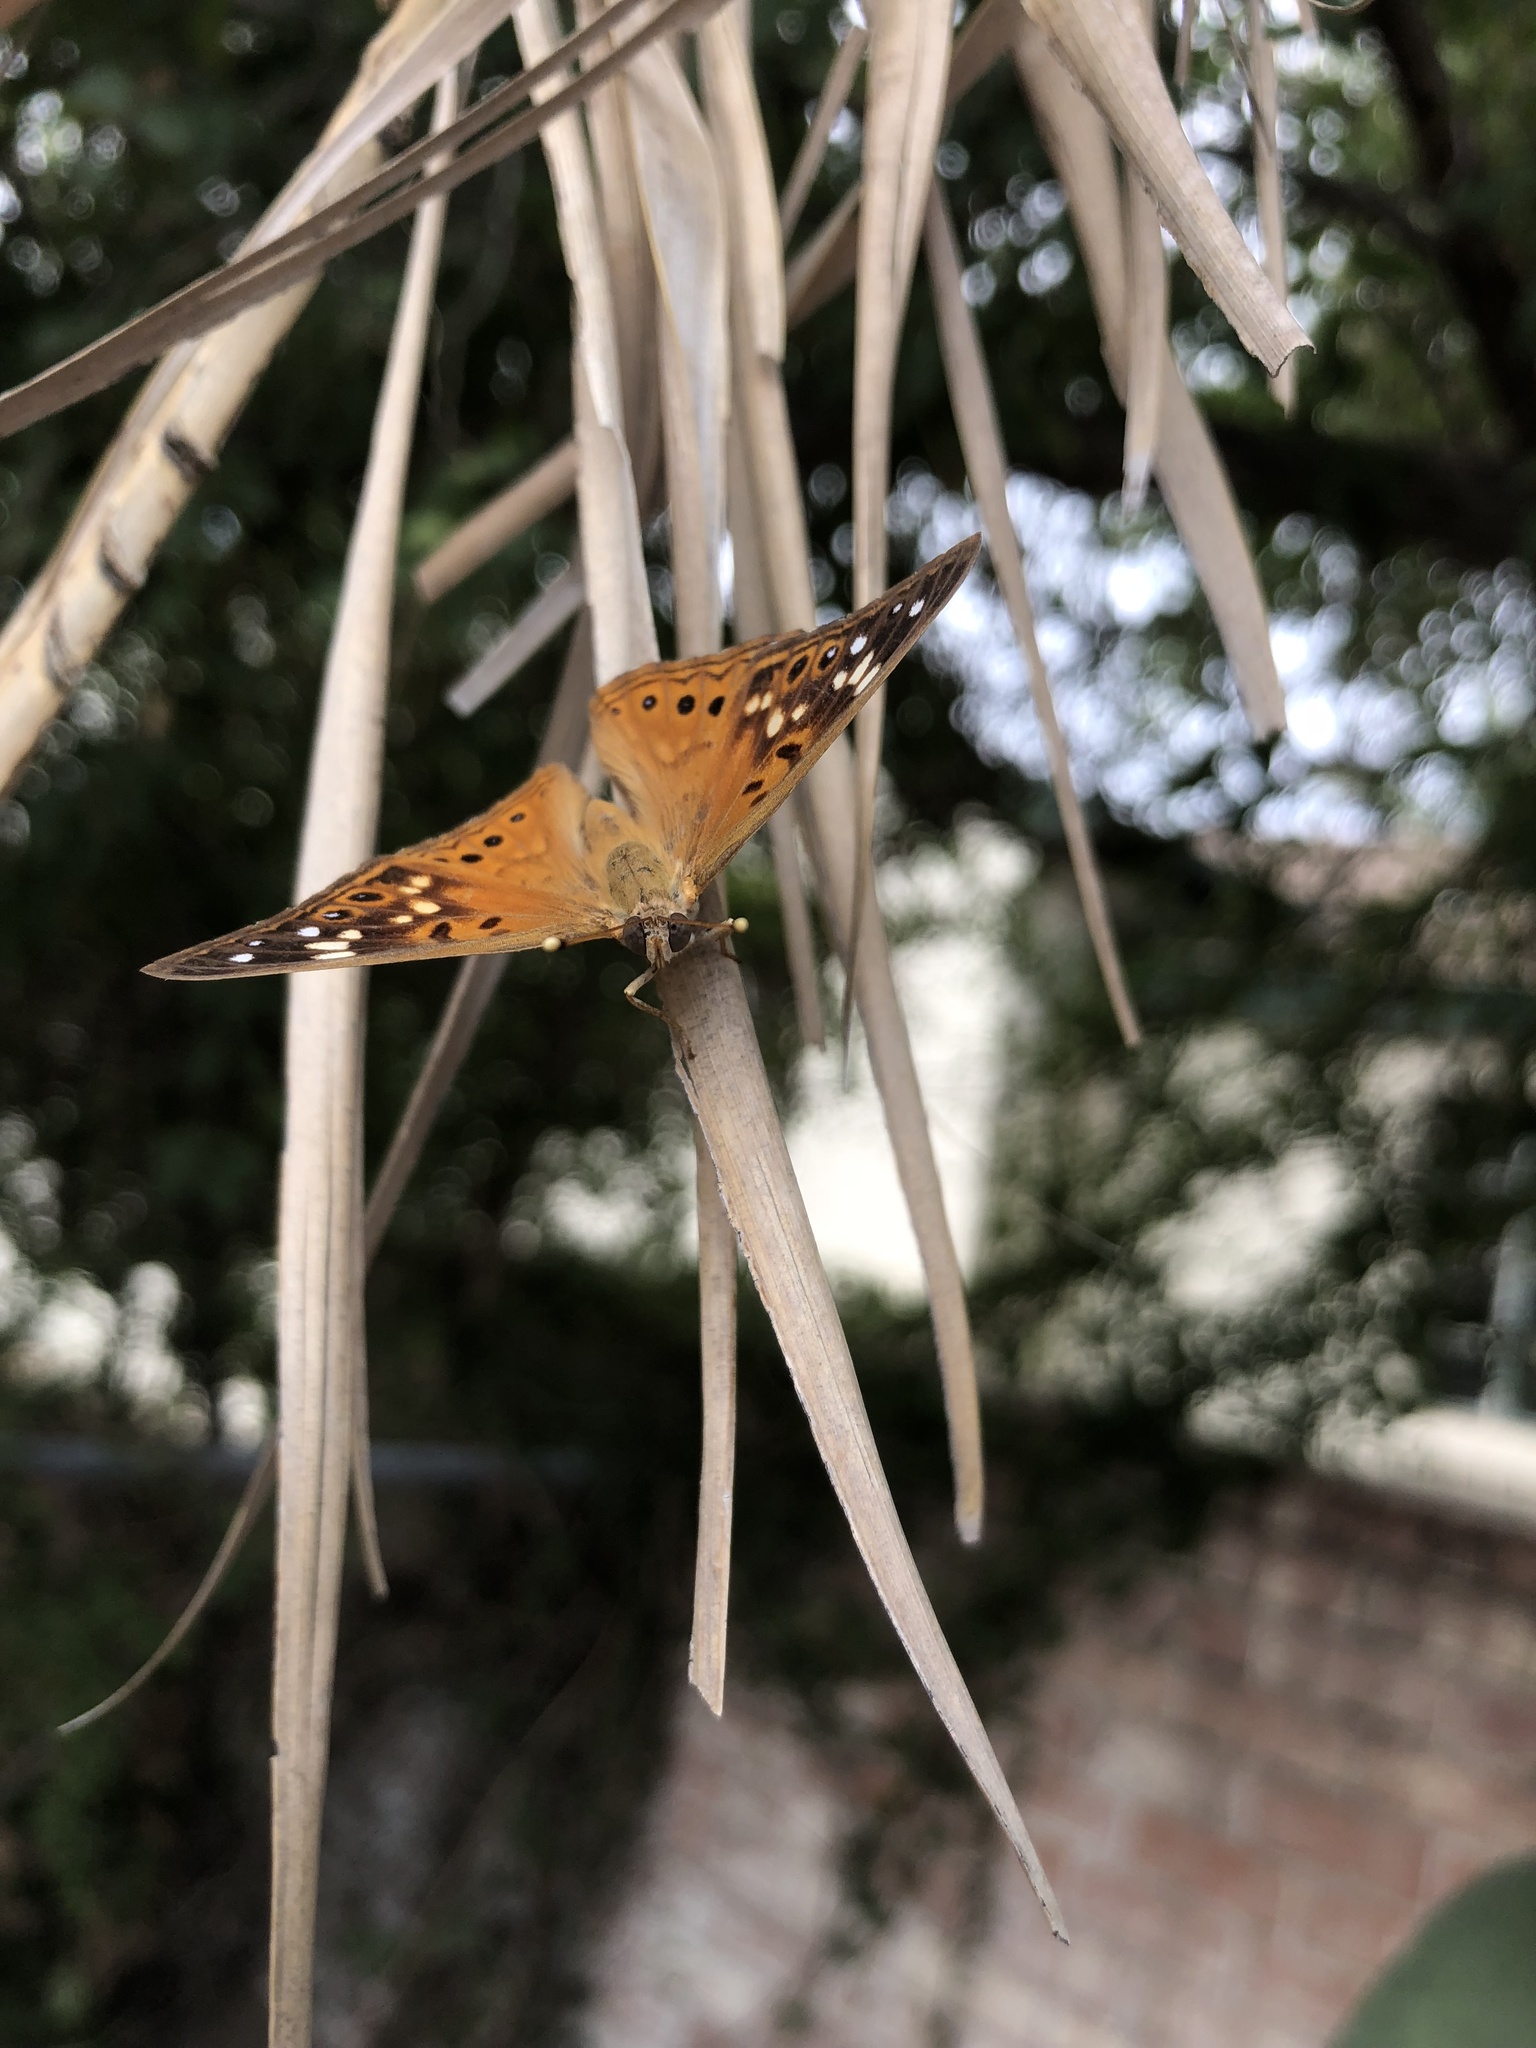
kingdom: Animalia
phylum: Arthropoda
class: Insecta
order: Lepidoptera
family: Nymphalidae
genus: Asterocampa
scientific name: Asterocampa celtis
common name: Hackberry emperor
